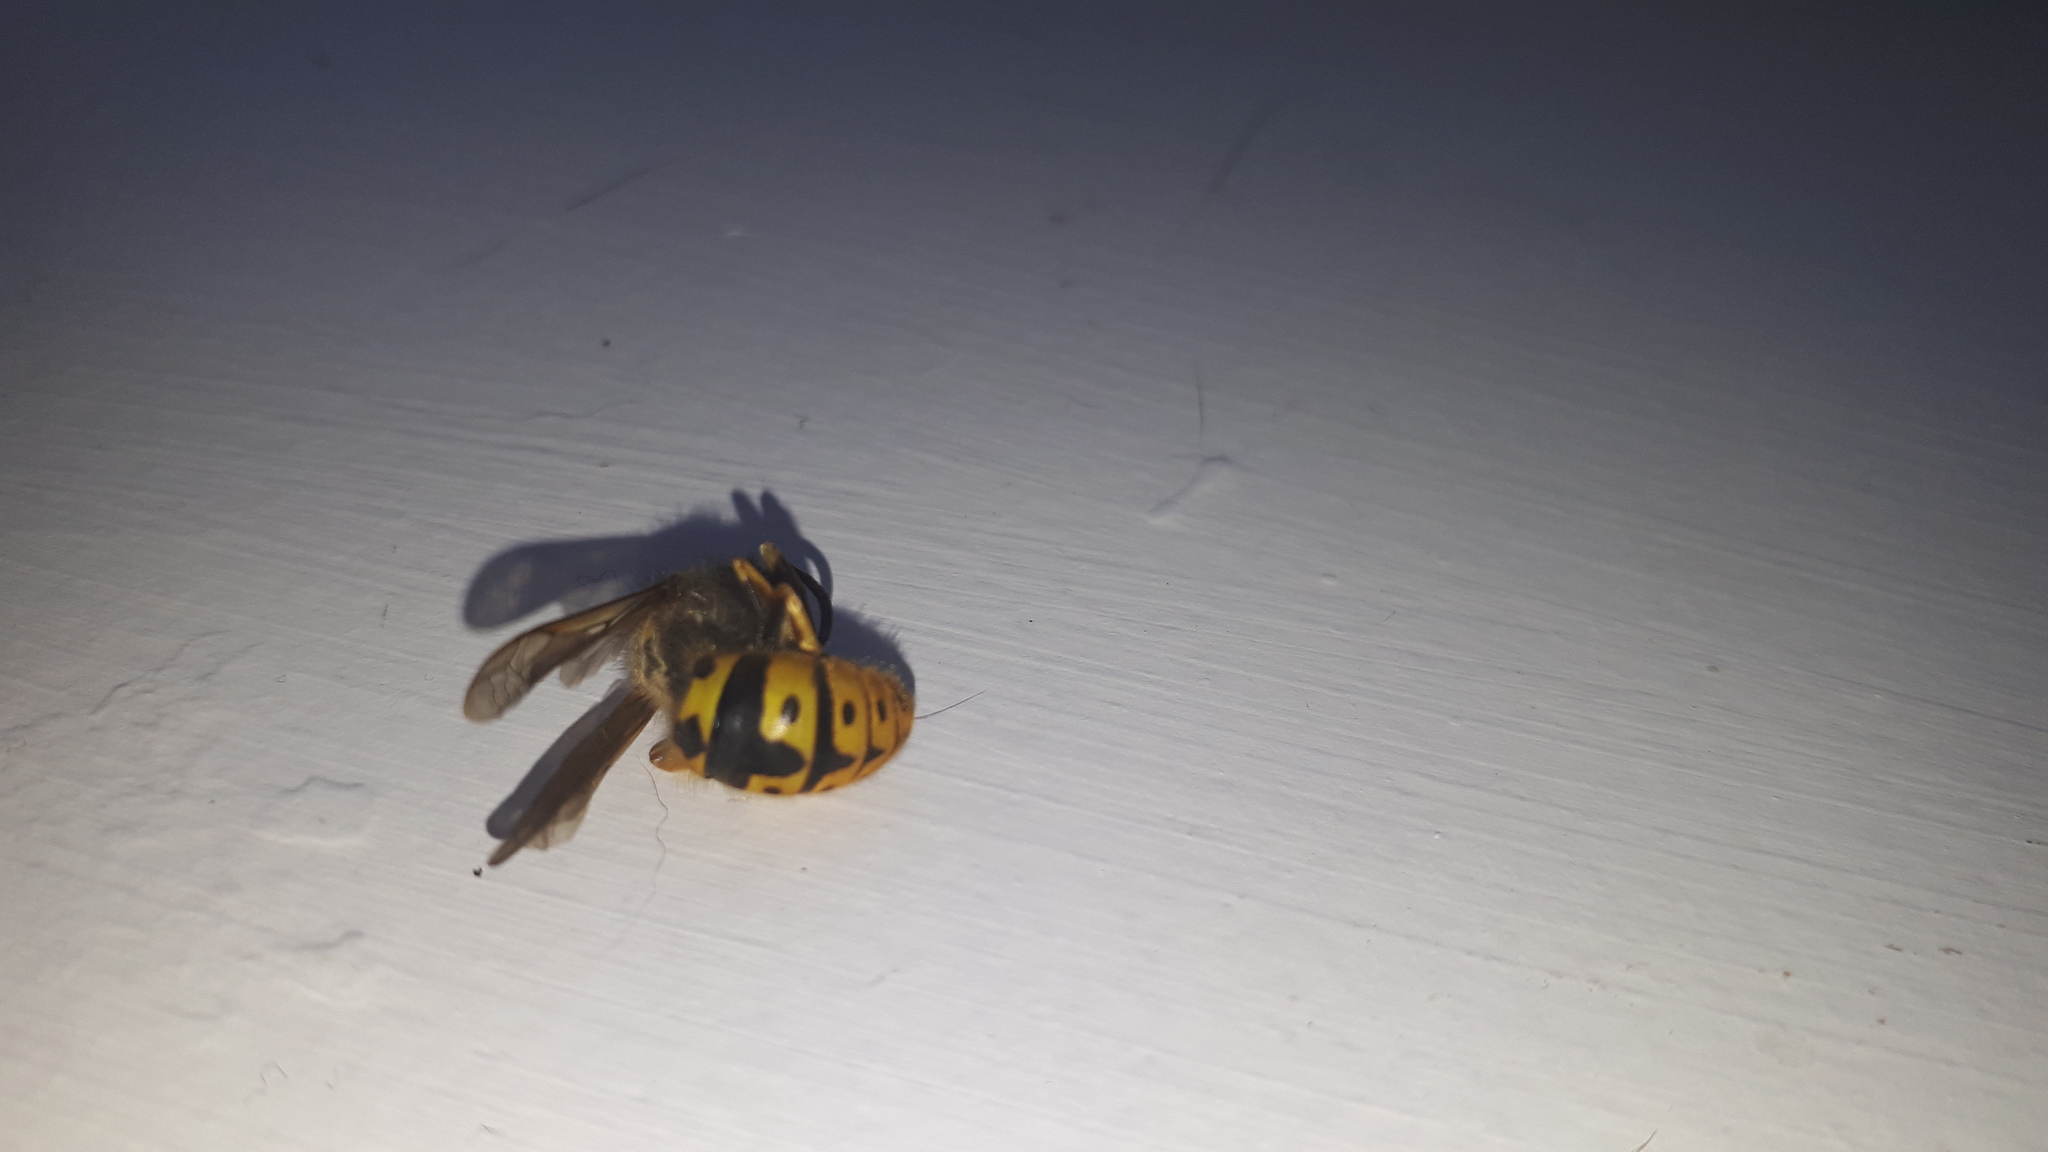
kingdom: Animalia
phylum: Arthropoda
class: Insecta
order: Hymenoptera
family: Vespidae
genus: Vespula
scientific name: Vespula germanica
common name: German wasp
